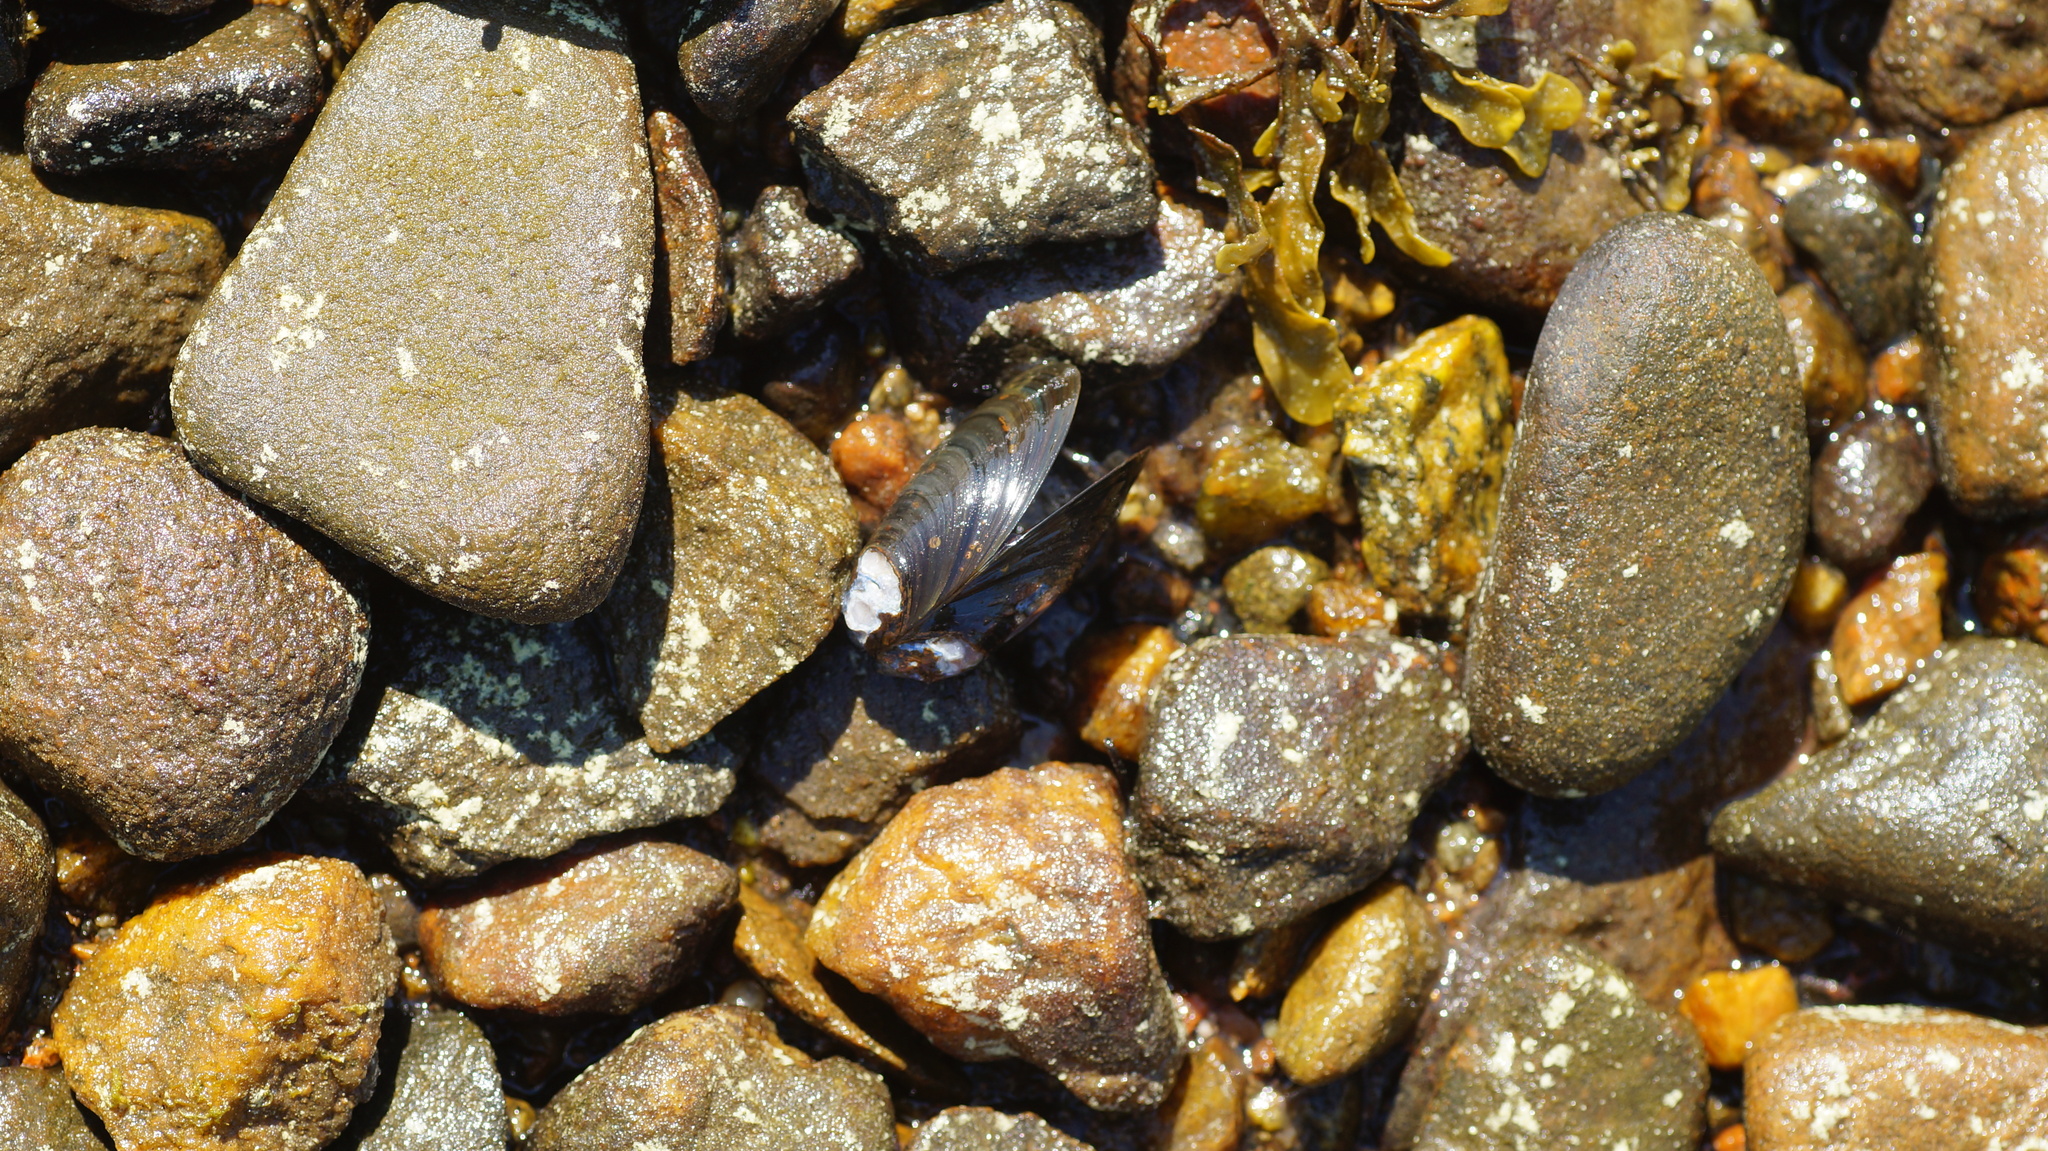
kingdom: Animalia
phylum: Mollusca
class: Bivalvia
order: Mytilida
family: Mytilidae
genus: Mytilus
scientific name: Mytilus edulis
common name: Blue mussel
